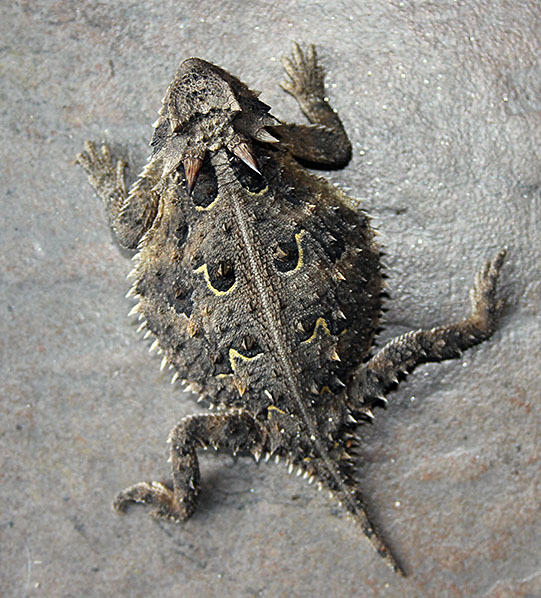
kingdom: Animalia
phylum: Chordata
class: Squamata
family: Phrynosomatidae
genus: Phrynosoma
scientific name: Phrynosoma cornutum
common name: Texas horned lizard
